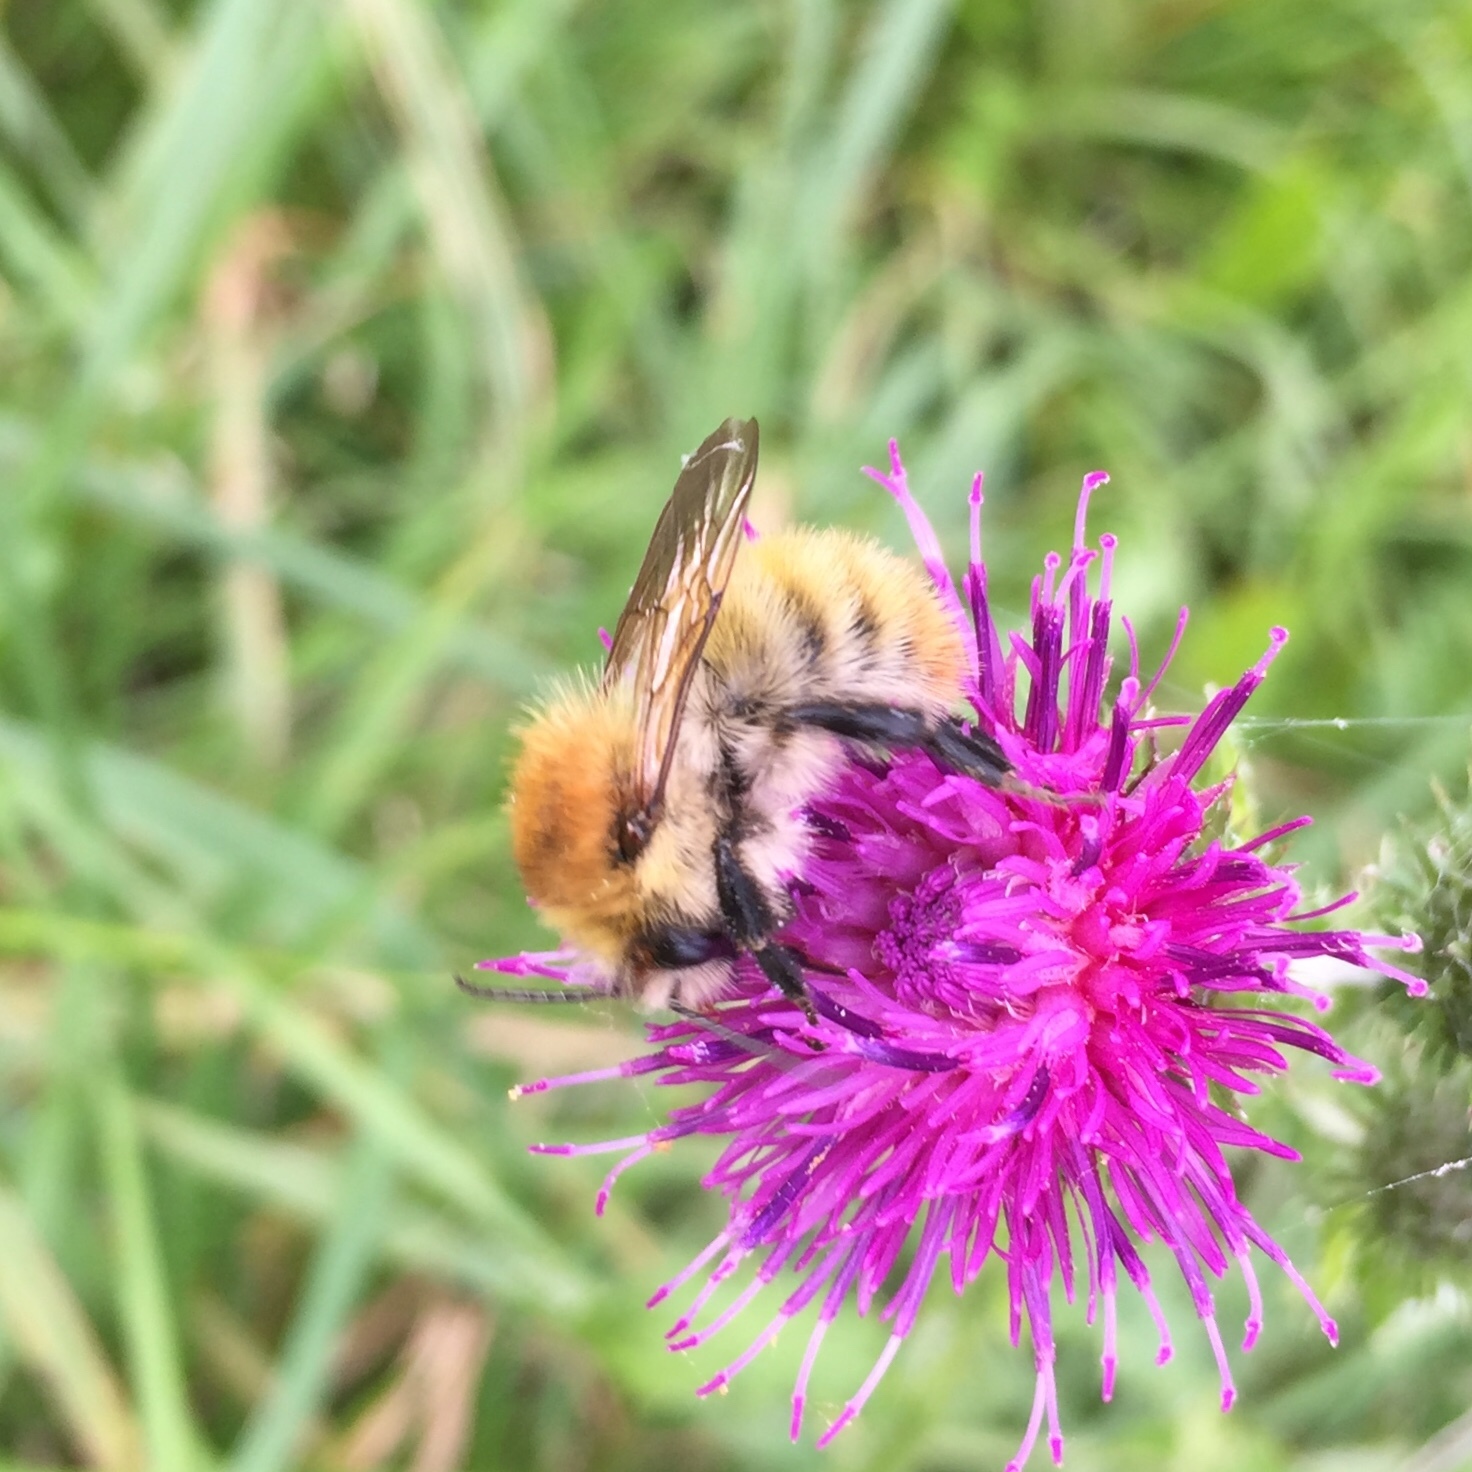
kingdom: Animalia
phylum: Arthropoda
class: Insecta
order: Hymenoptera
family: Apidae
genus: Bombus
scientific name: Bombus pascuorum
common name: Common carder bee
